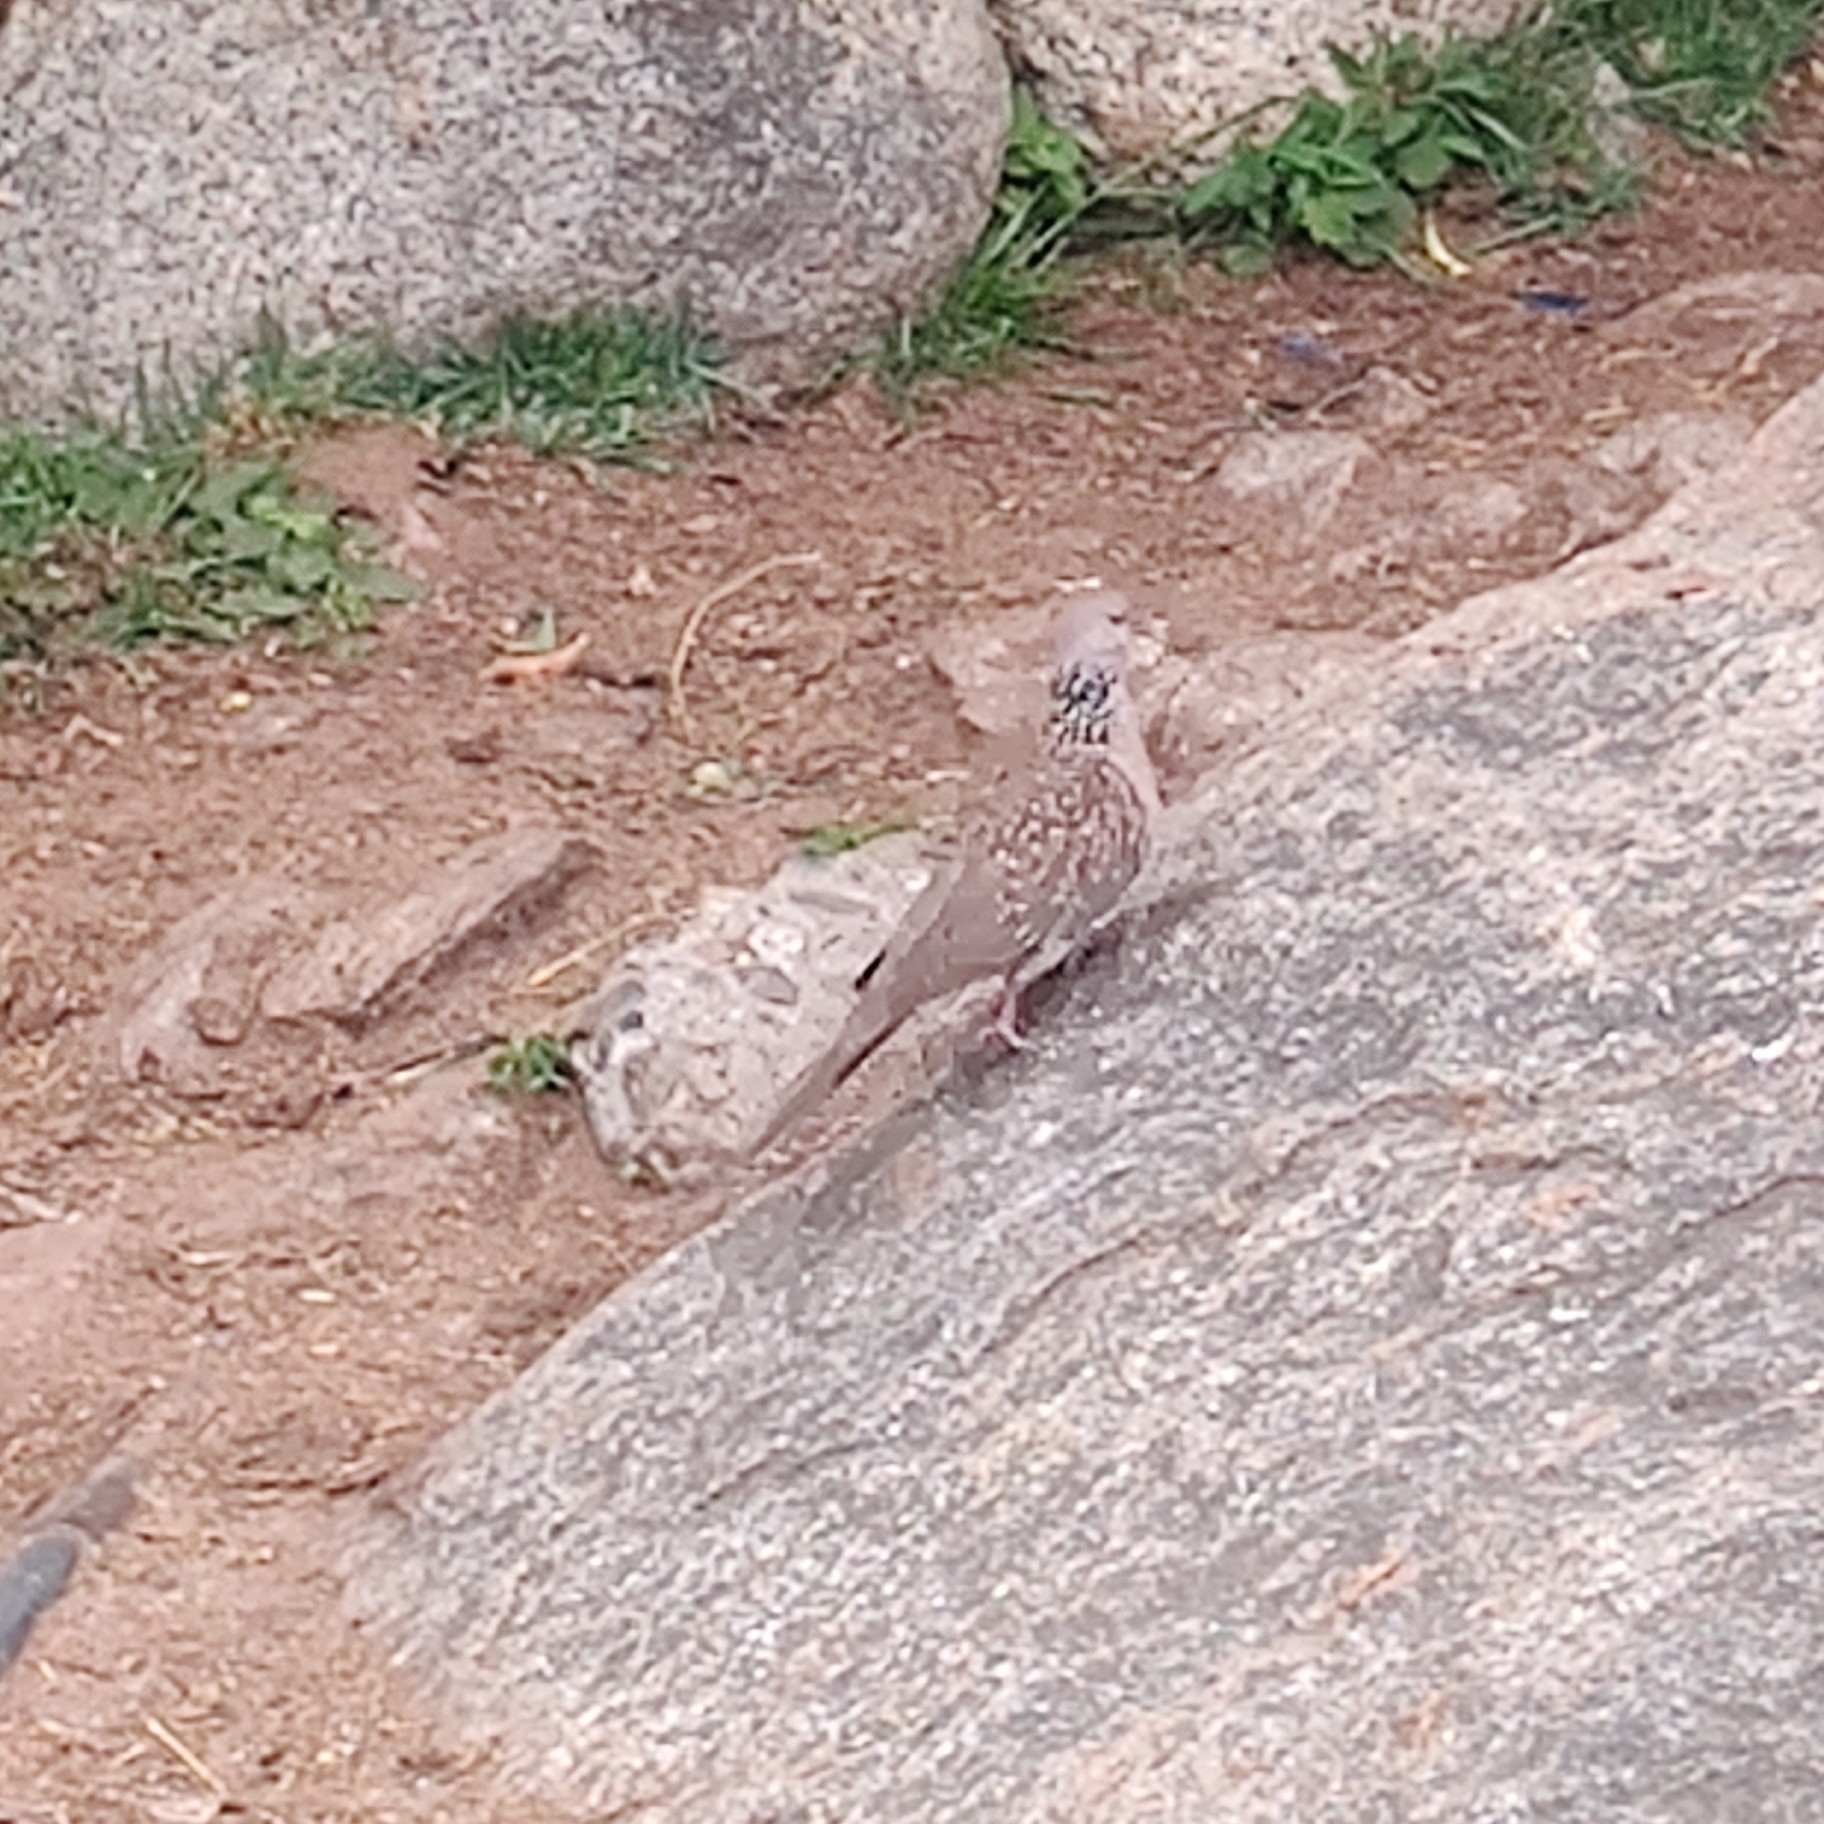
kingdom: Animalia
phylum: Chordata
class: Aves
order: Columbiformes
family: Columbidae
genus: Spilopelia
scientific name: Spilopelia chinensis
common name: Spotted dove
